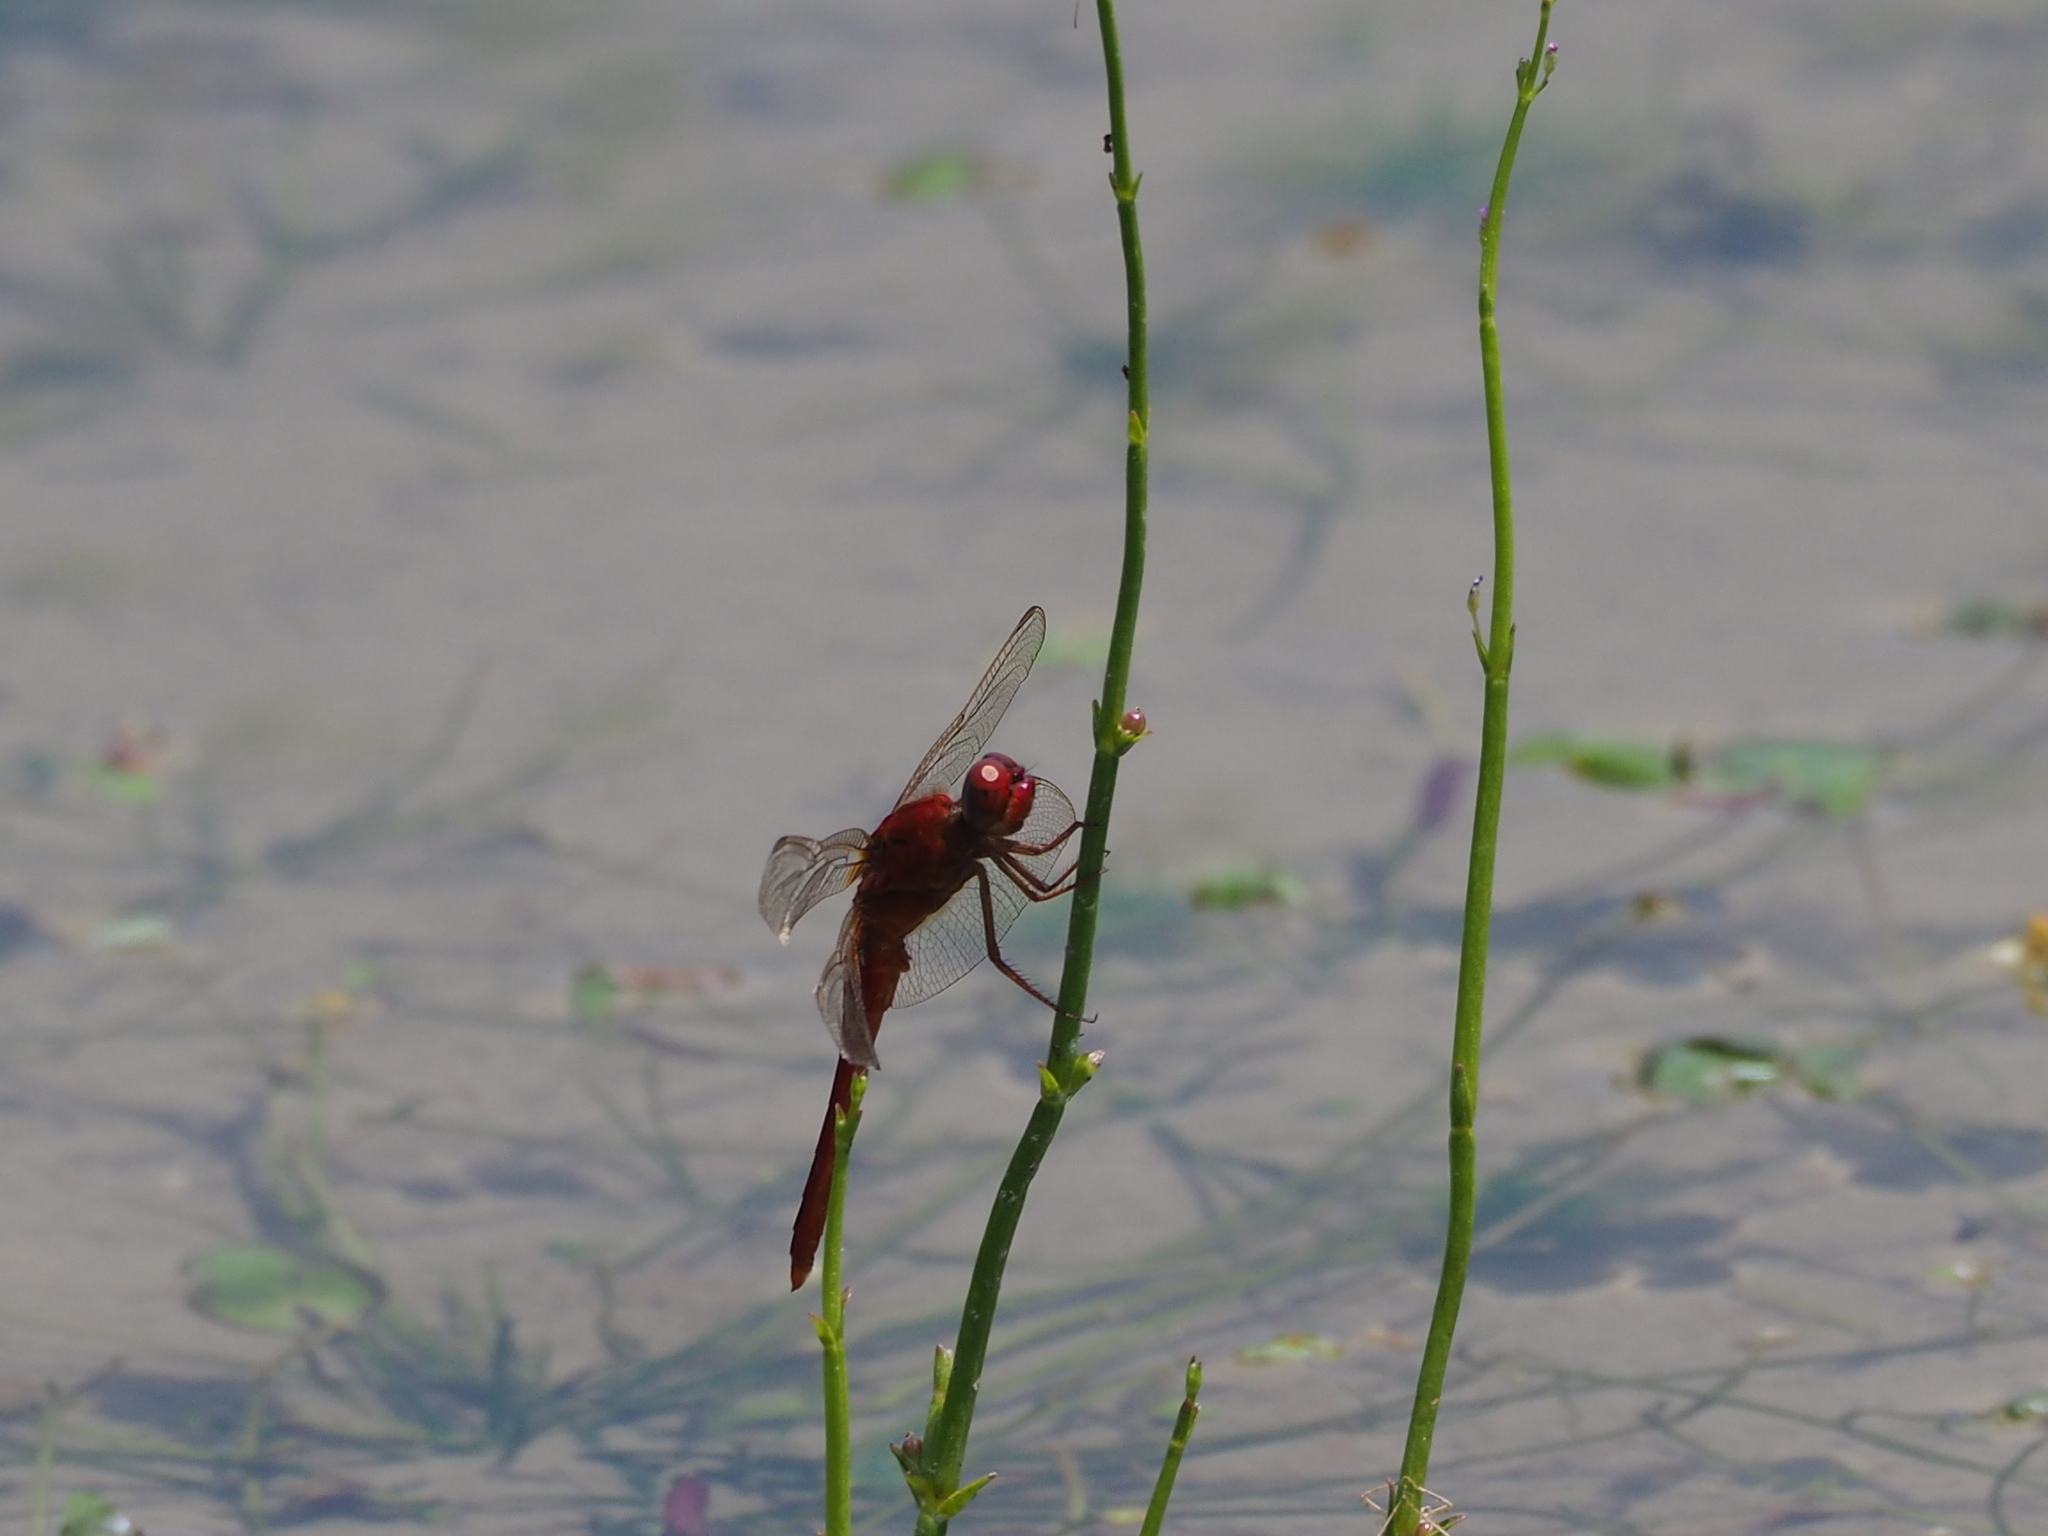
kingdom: Animalia
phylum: Arthropoda
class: Insecta
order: Odonata
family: Libellulidae
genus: Crocothemis
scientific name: Crocothemis servilia
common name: Scarlet skimmer
